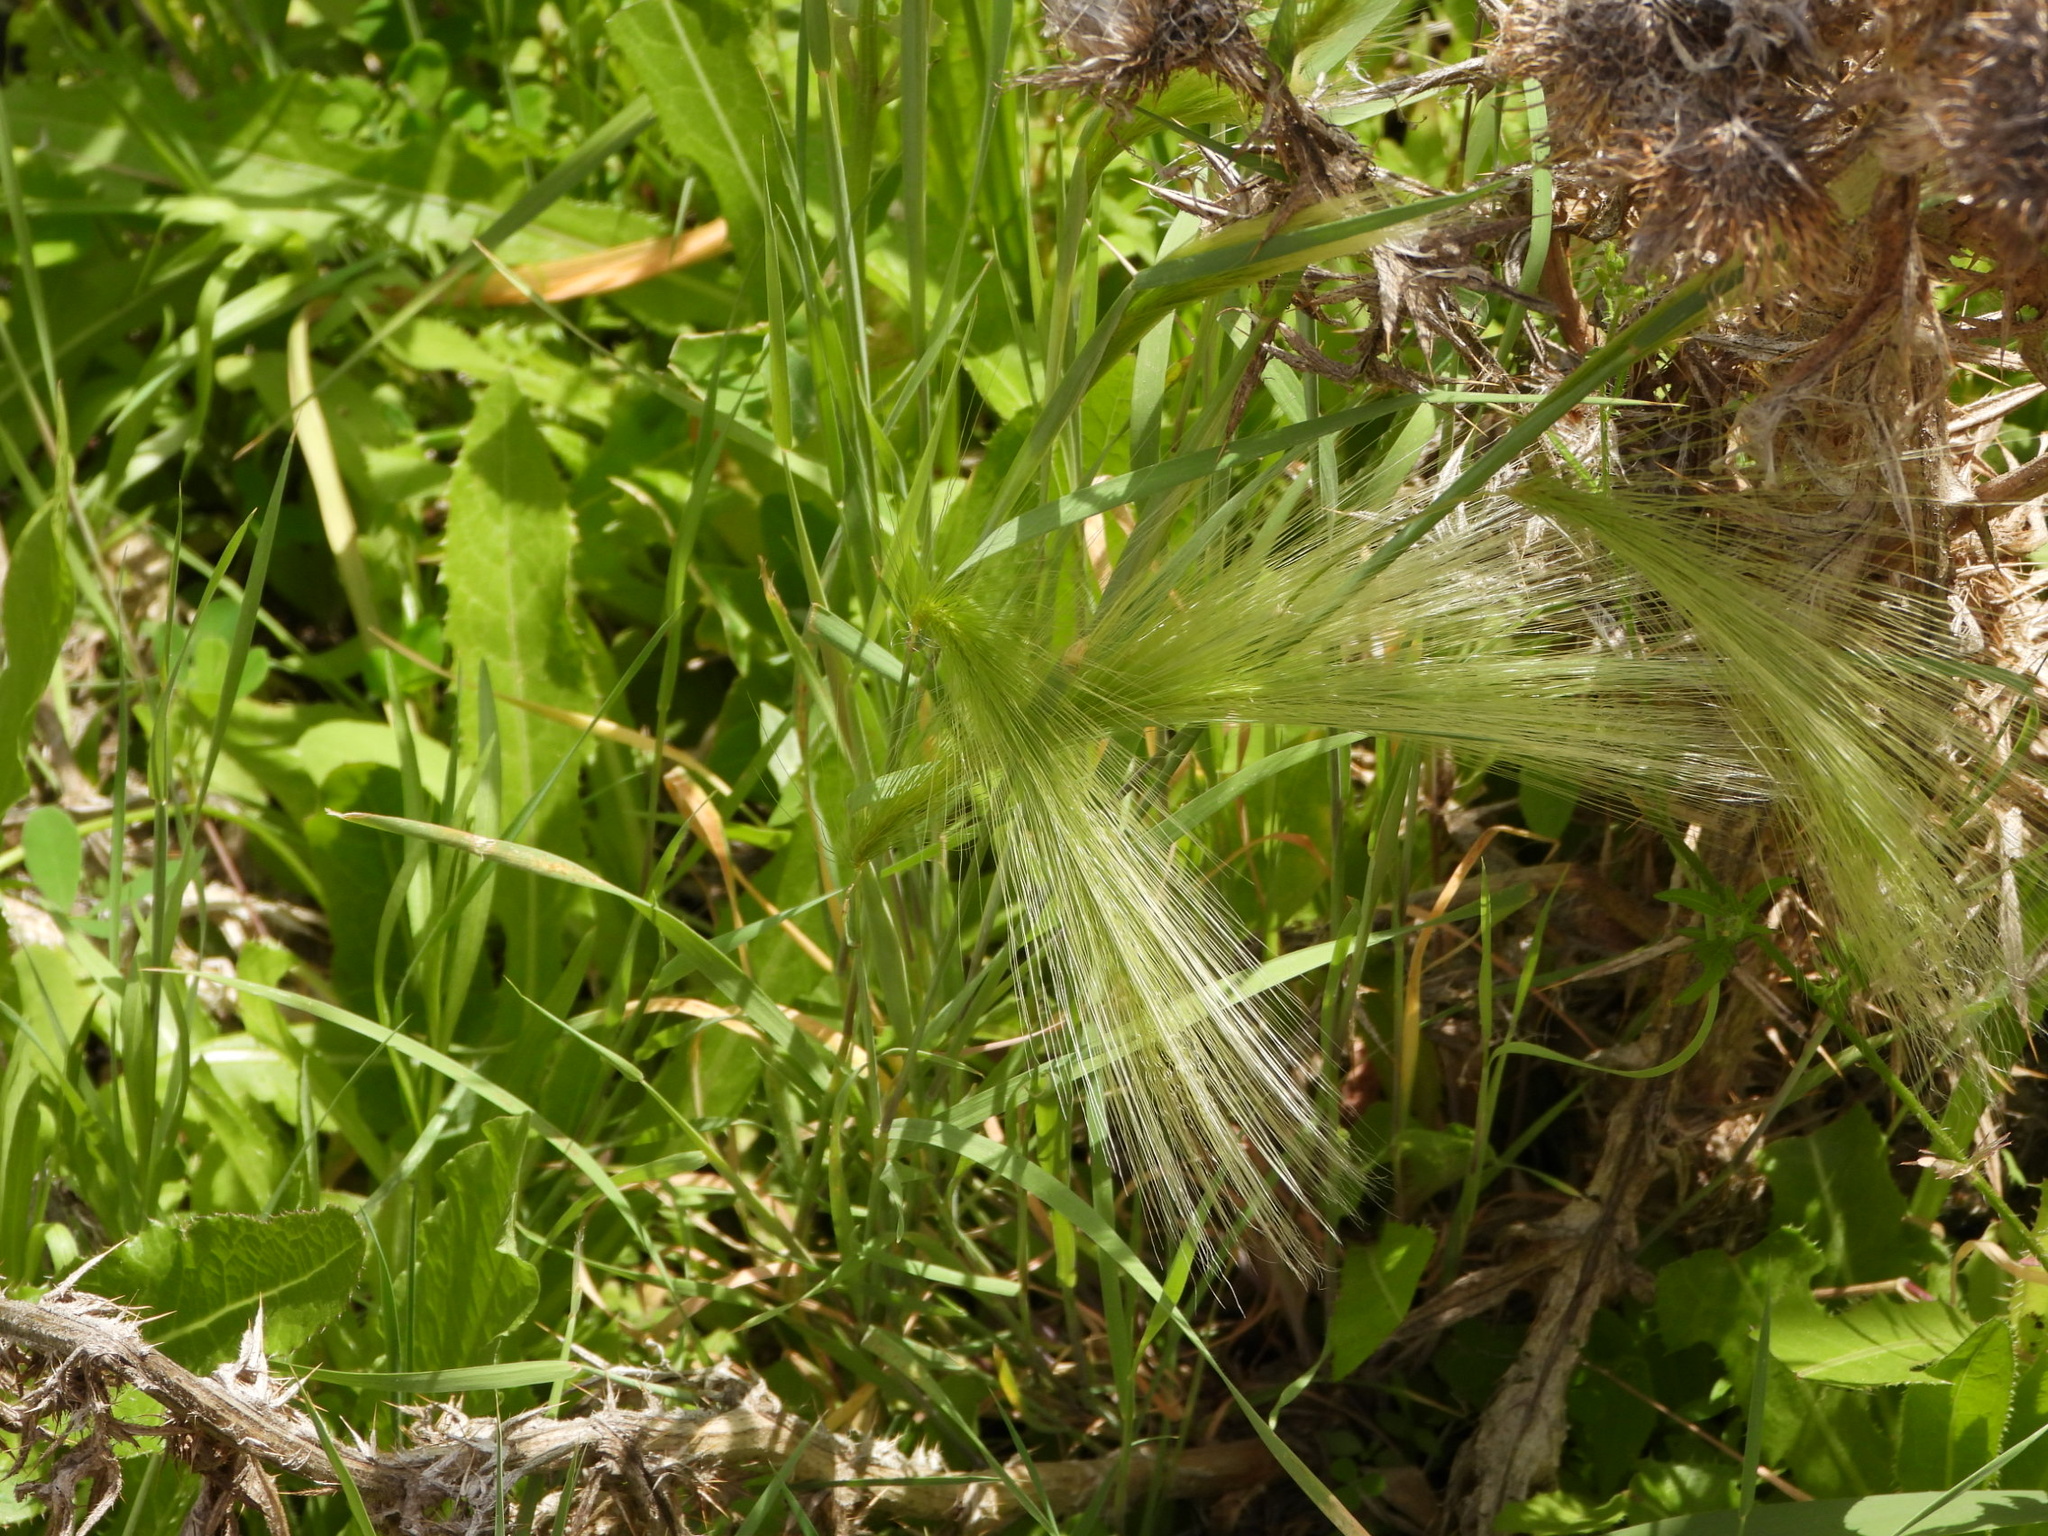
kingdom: Plantae
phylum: Tracheophyta
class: Liliopsida
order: Poales
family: Poaceae
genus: Hordeum
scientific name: Hordeum jubatum
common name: Foxtail barley
